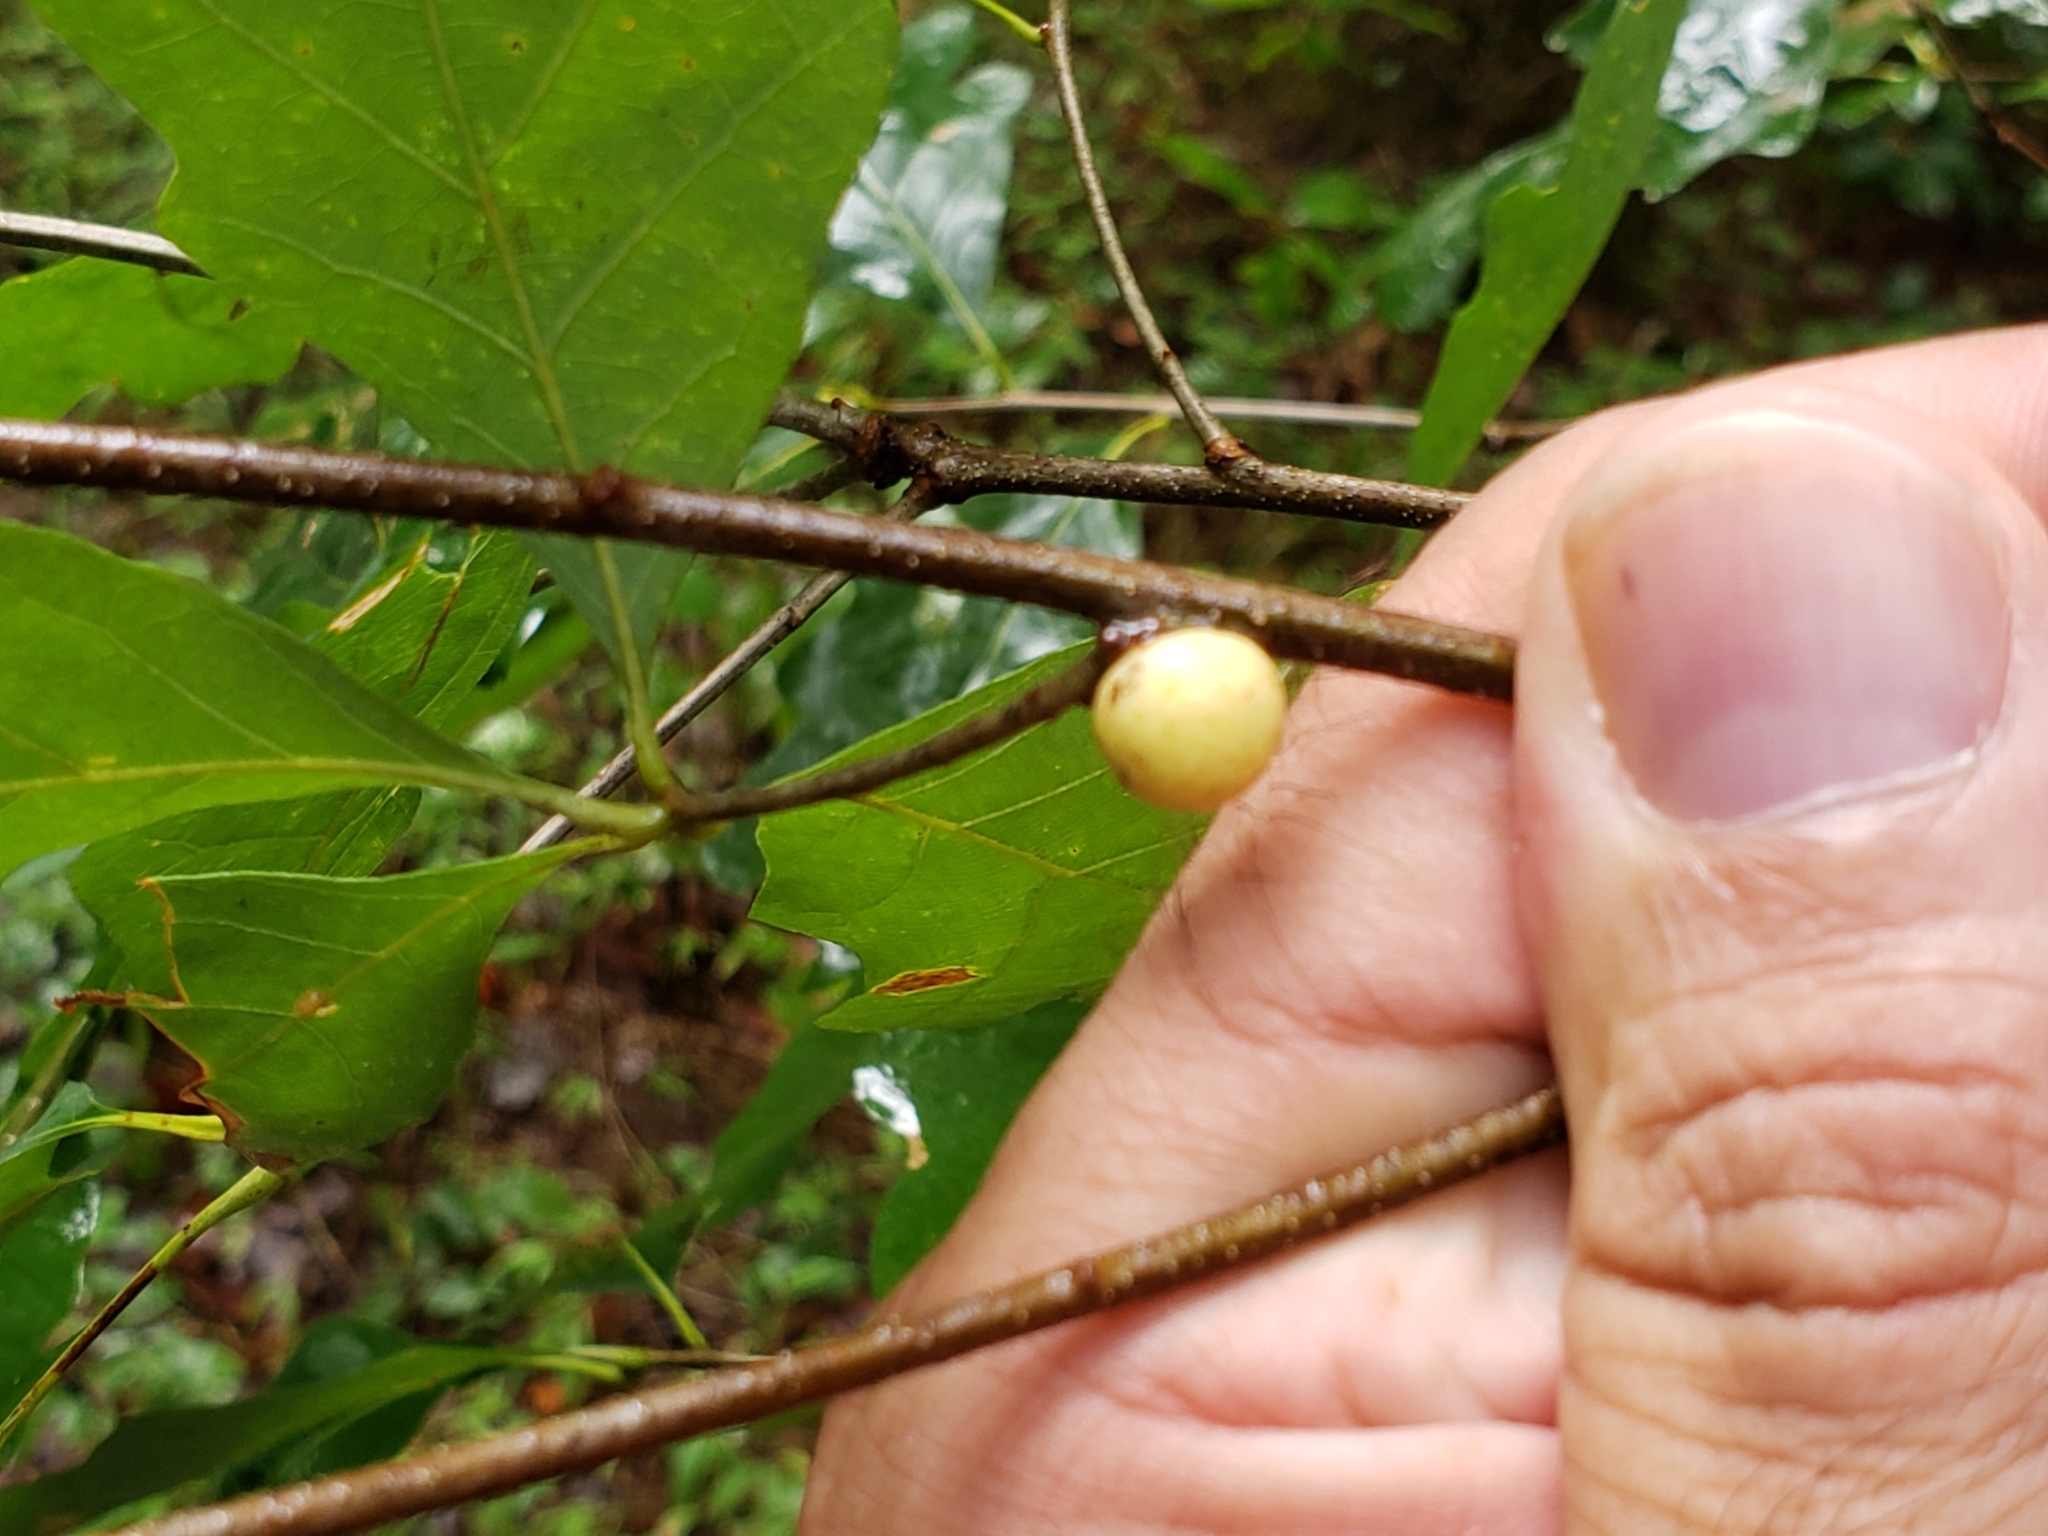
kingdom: Animalia
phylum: Arthropoda
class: Insecta
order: Hymenoptera
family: Cynipidae
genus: Disholcaspis
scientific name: Disholcaspis quercusglobulus
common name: Round bullet gall wasp
